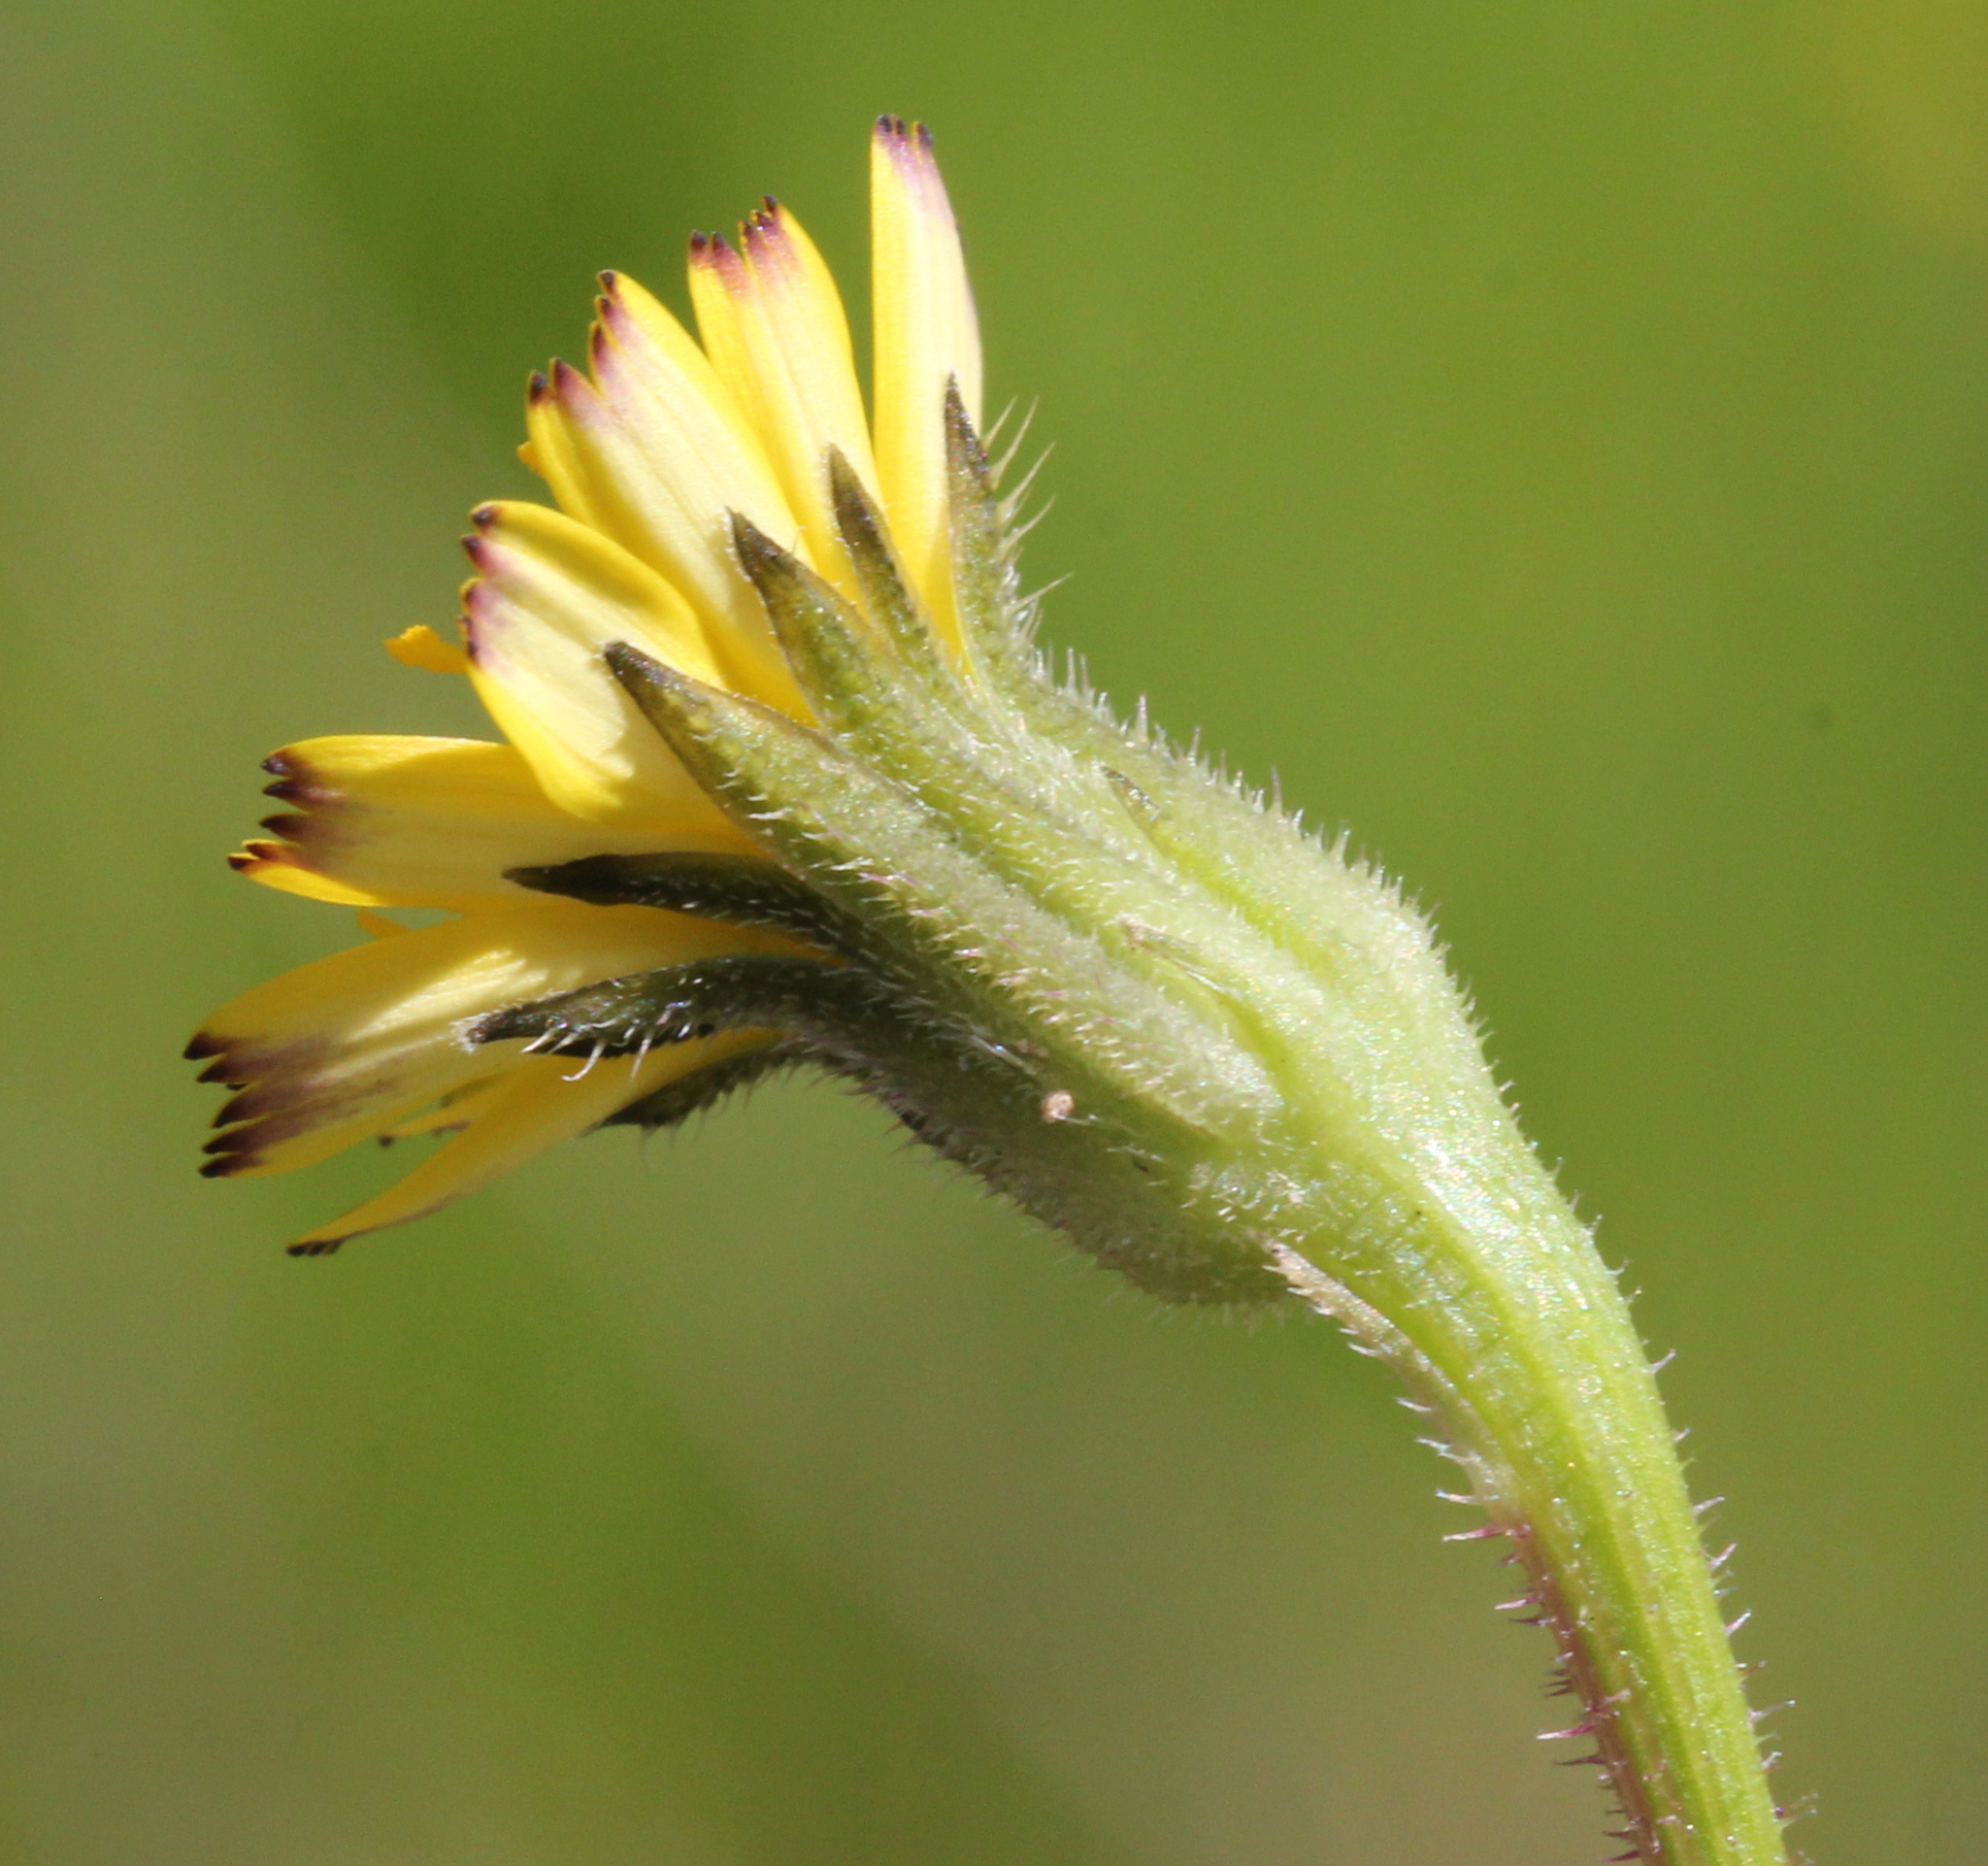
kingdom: Plantae
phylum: Tracheophyta
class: Magnoliopsida
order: Asterales
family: Asteraceae
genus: Hedypnois
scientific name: Hedypnois rhagadioloides
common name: Cretan weed
